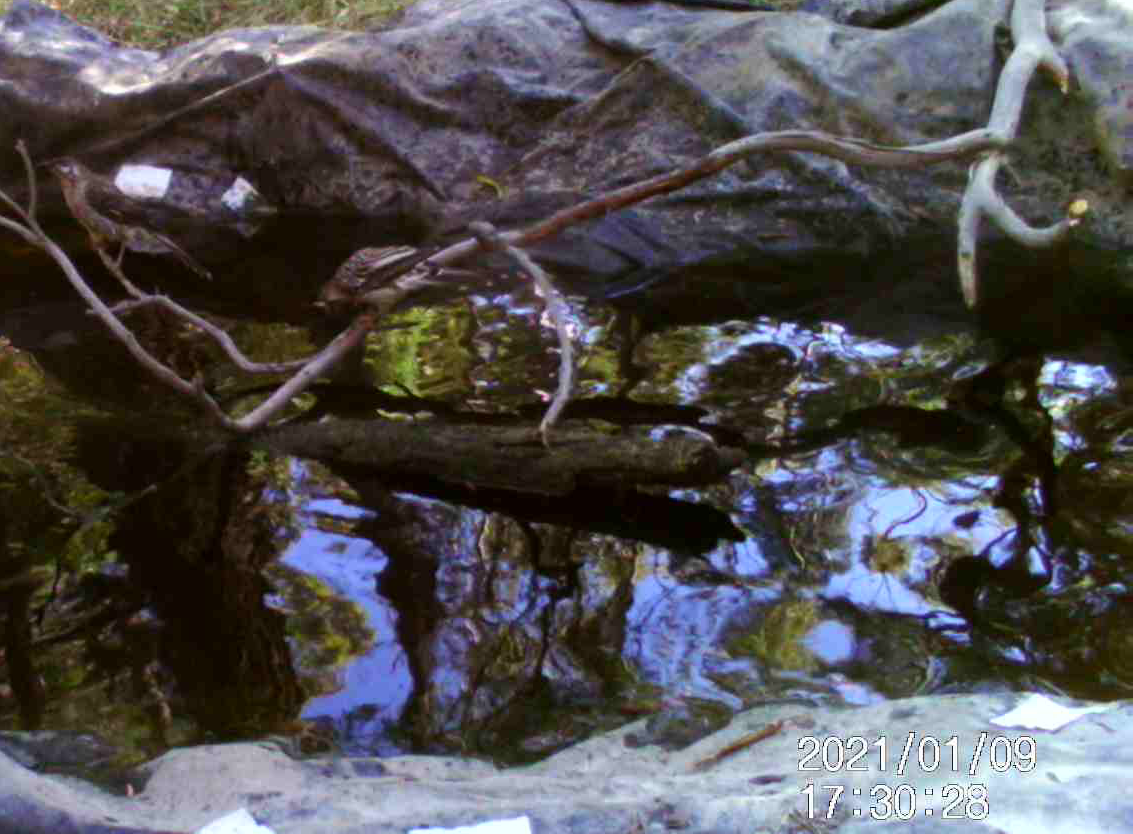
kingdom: Animalia
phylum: Chordata
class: Aves
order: Passeriformes
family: Meliphagidae
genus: Anthochaera
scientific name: Anthochaera carunculata
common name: Red wattlebird
